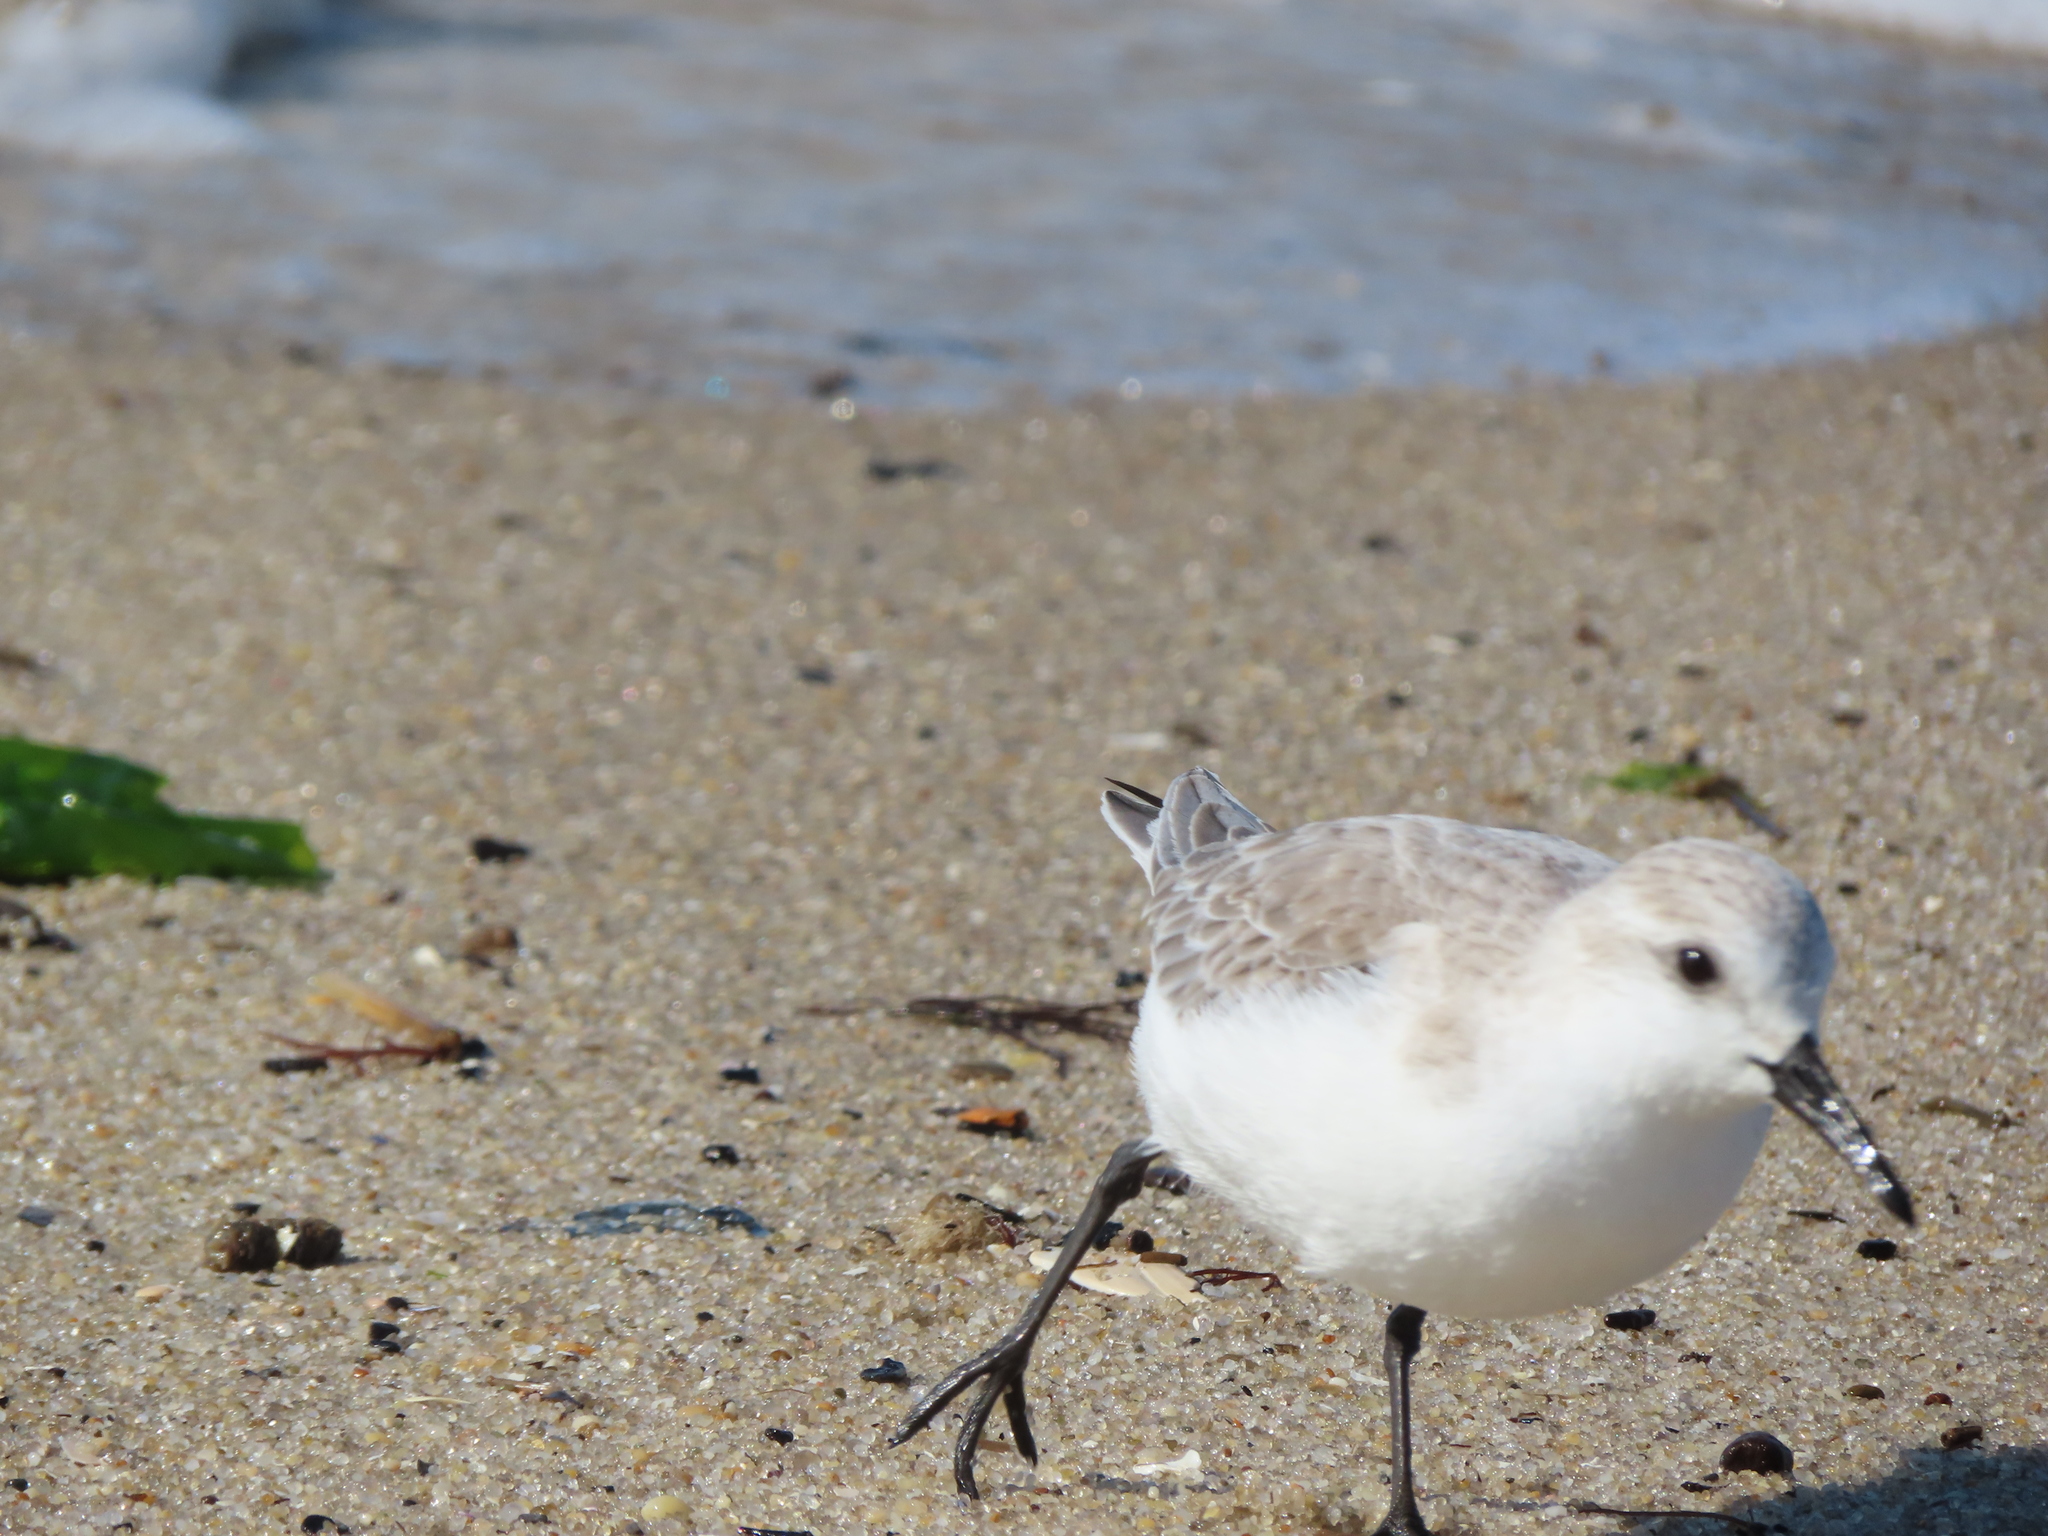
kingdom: Animalia
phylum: Chordata
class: Aves
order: Charadriiformes
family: Scolopacidae
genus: Calidris
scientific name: Calidris alba
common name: Sanderling
